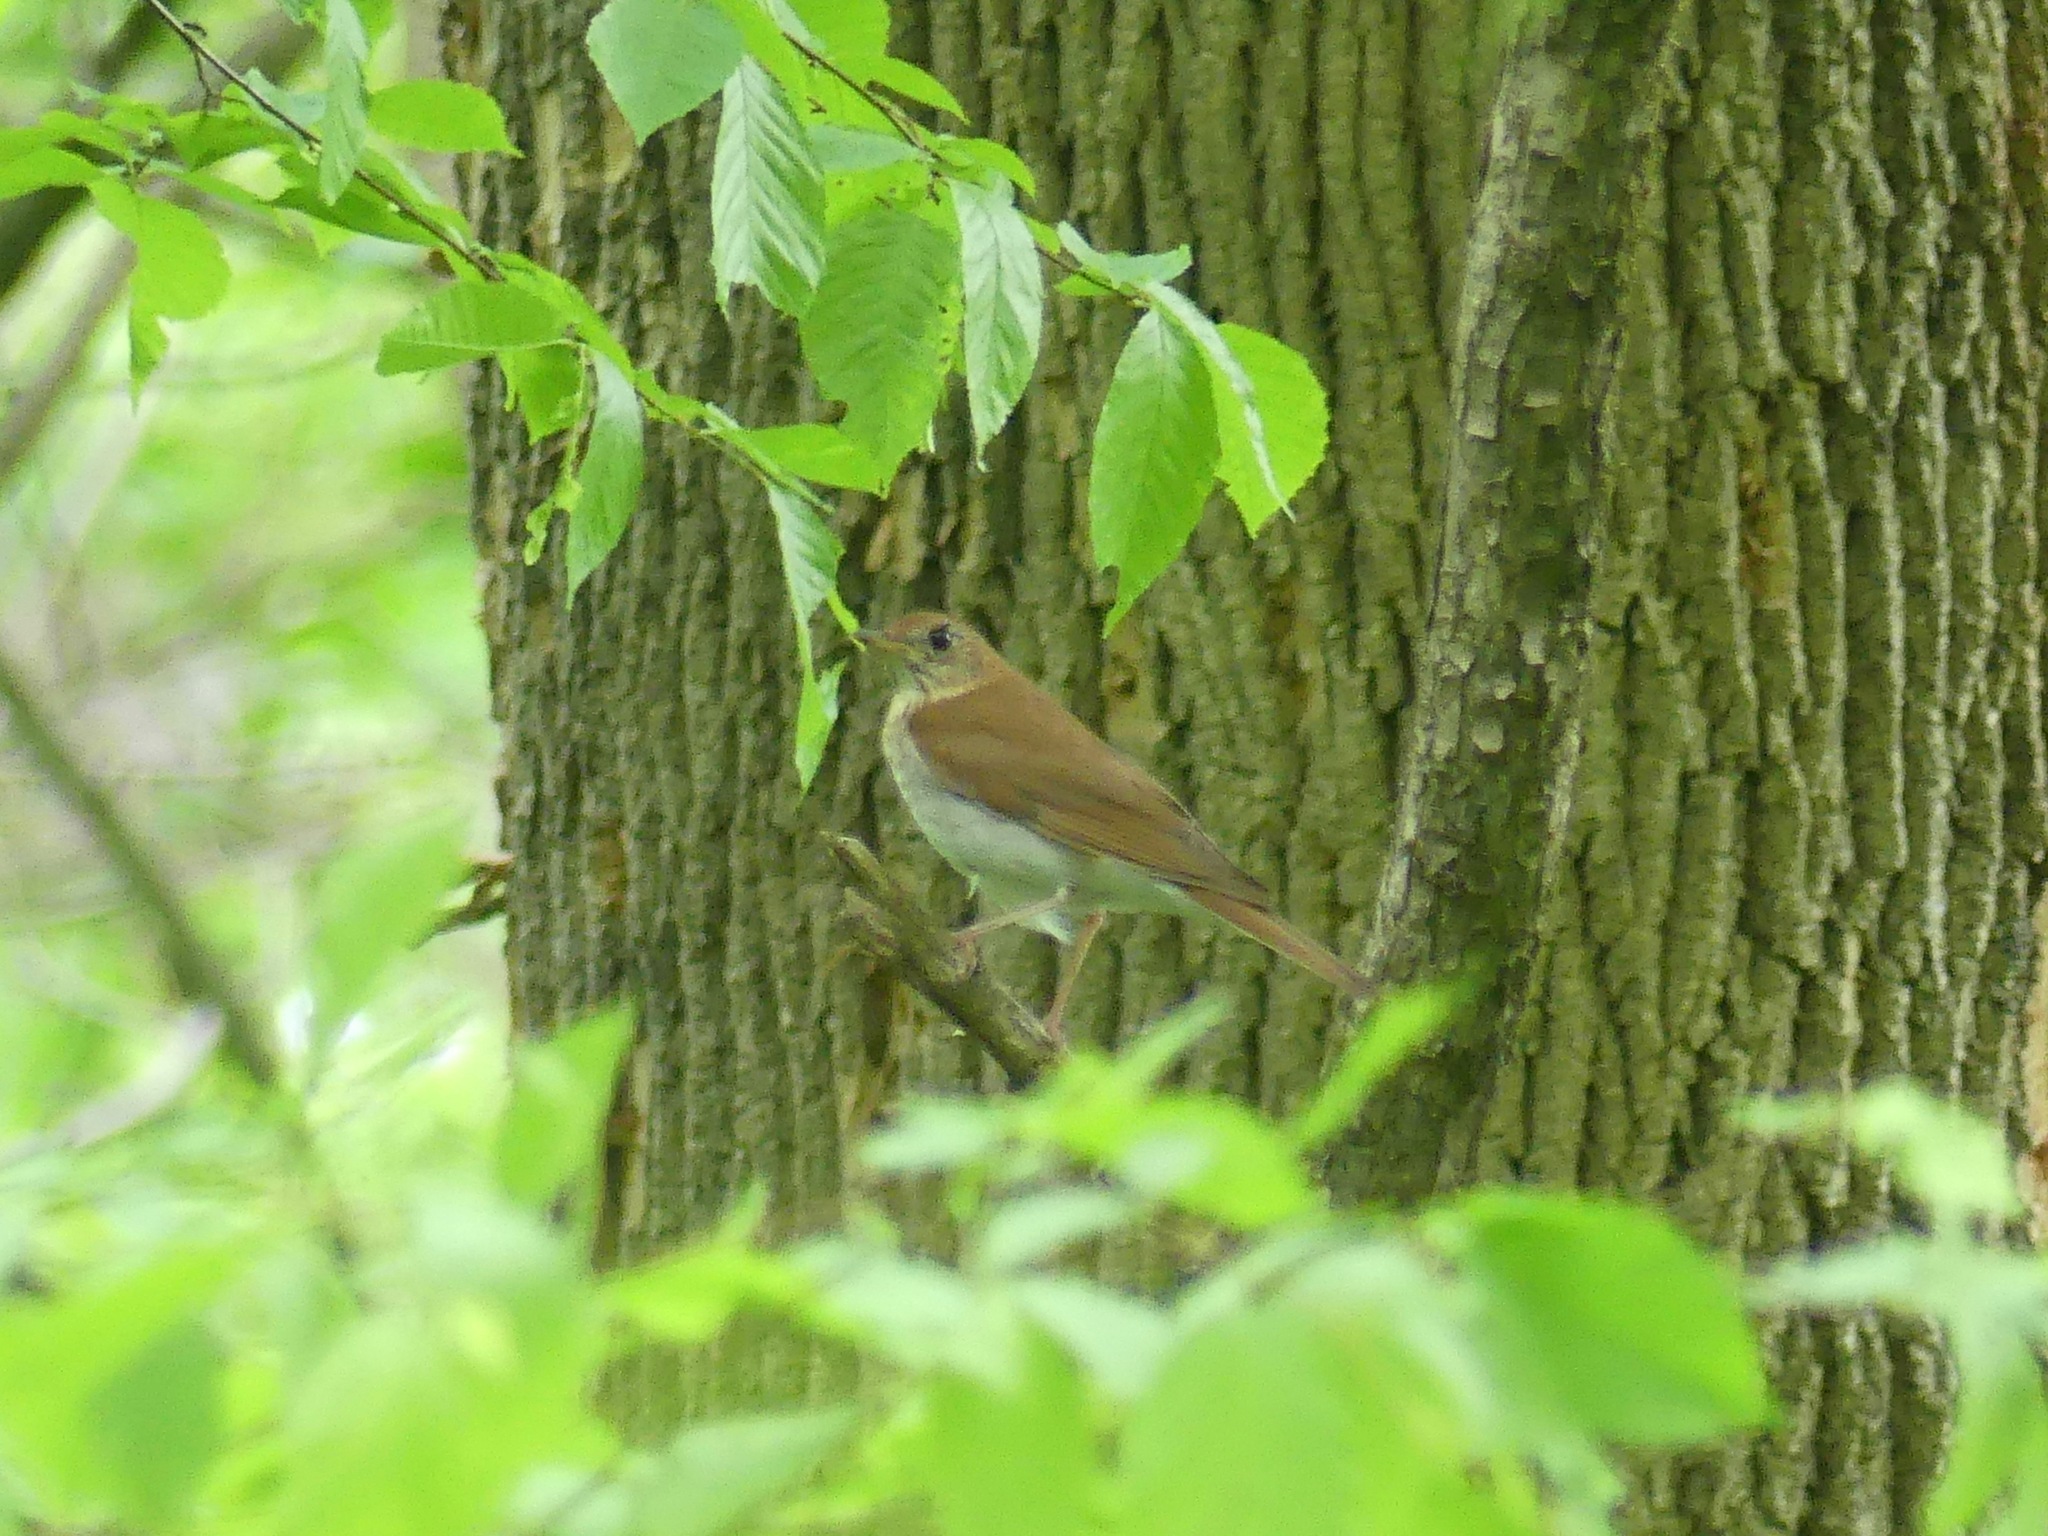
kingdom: Animalia
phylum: Chordata
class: Aves
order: Passeriformes
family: Turdidae
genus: Catharus
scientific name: Catharus fuscescens
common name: Veery
